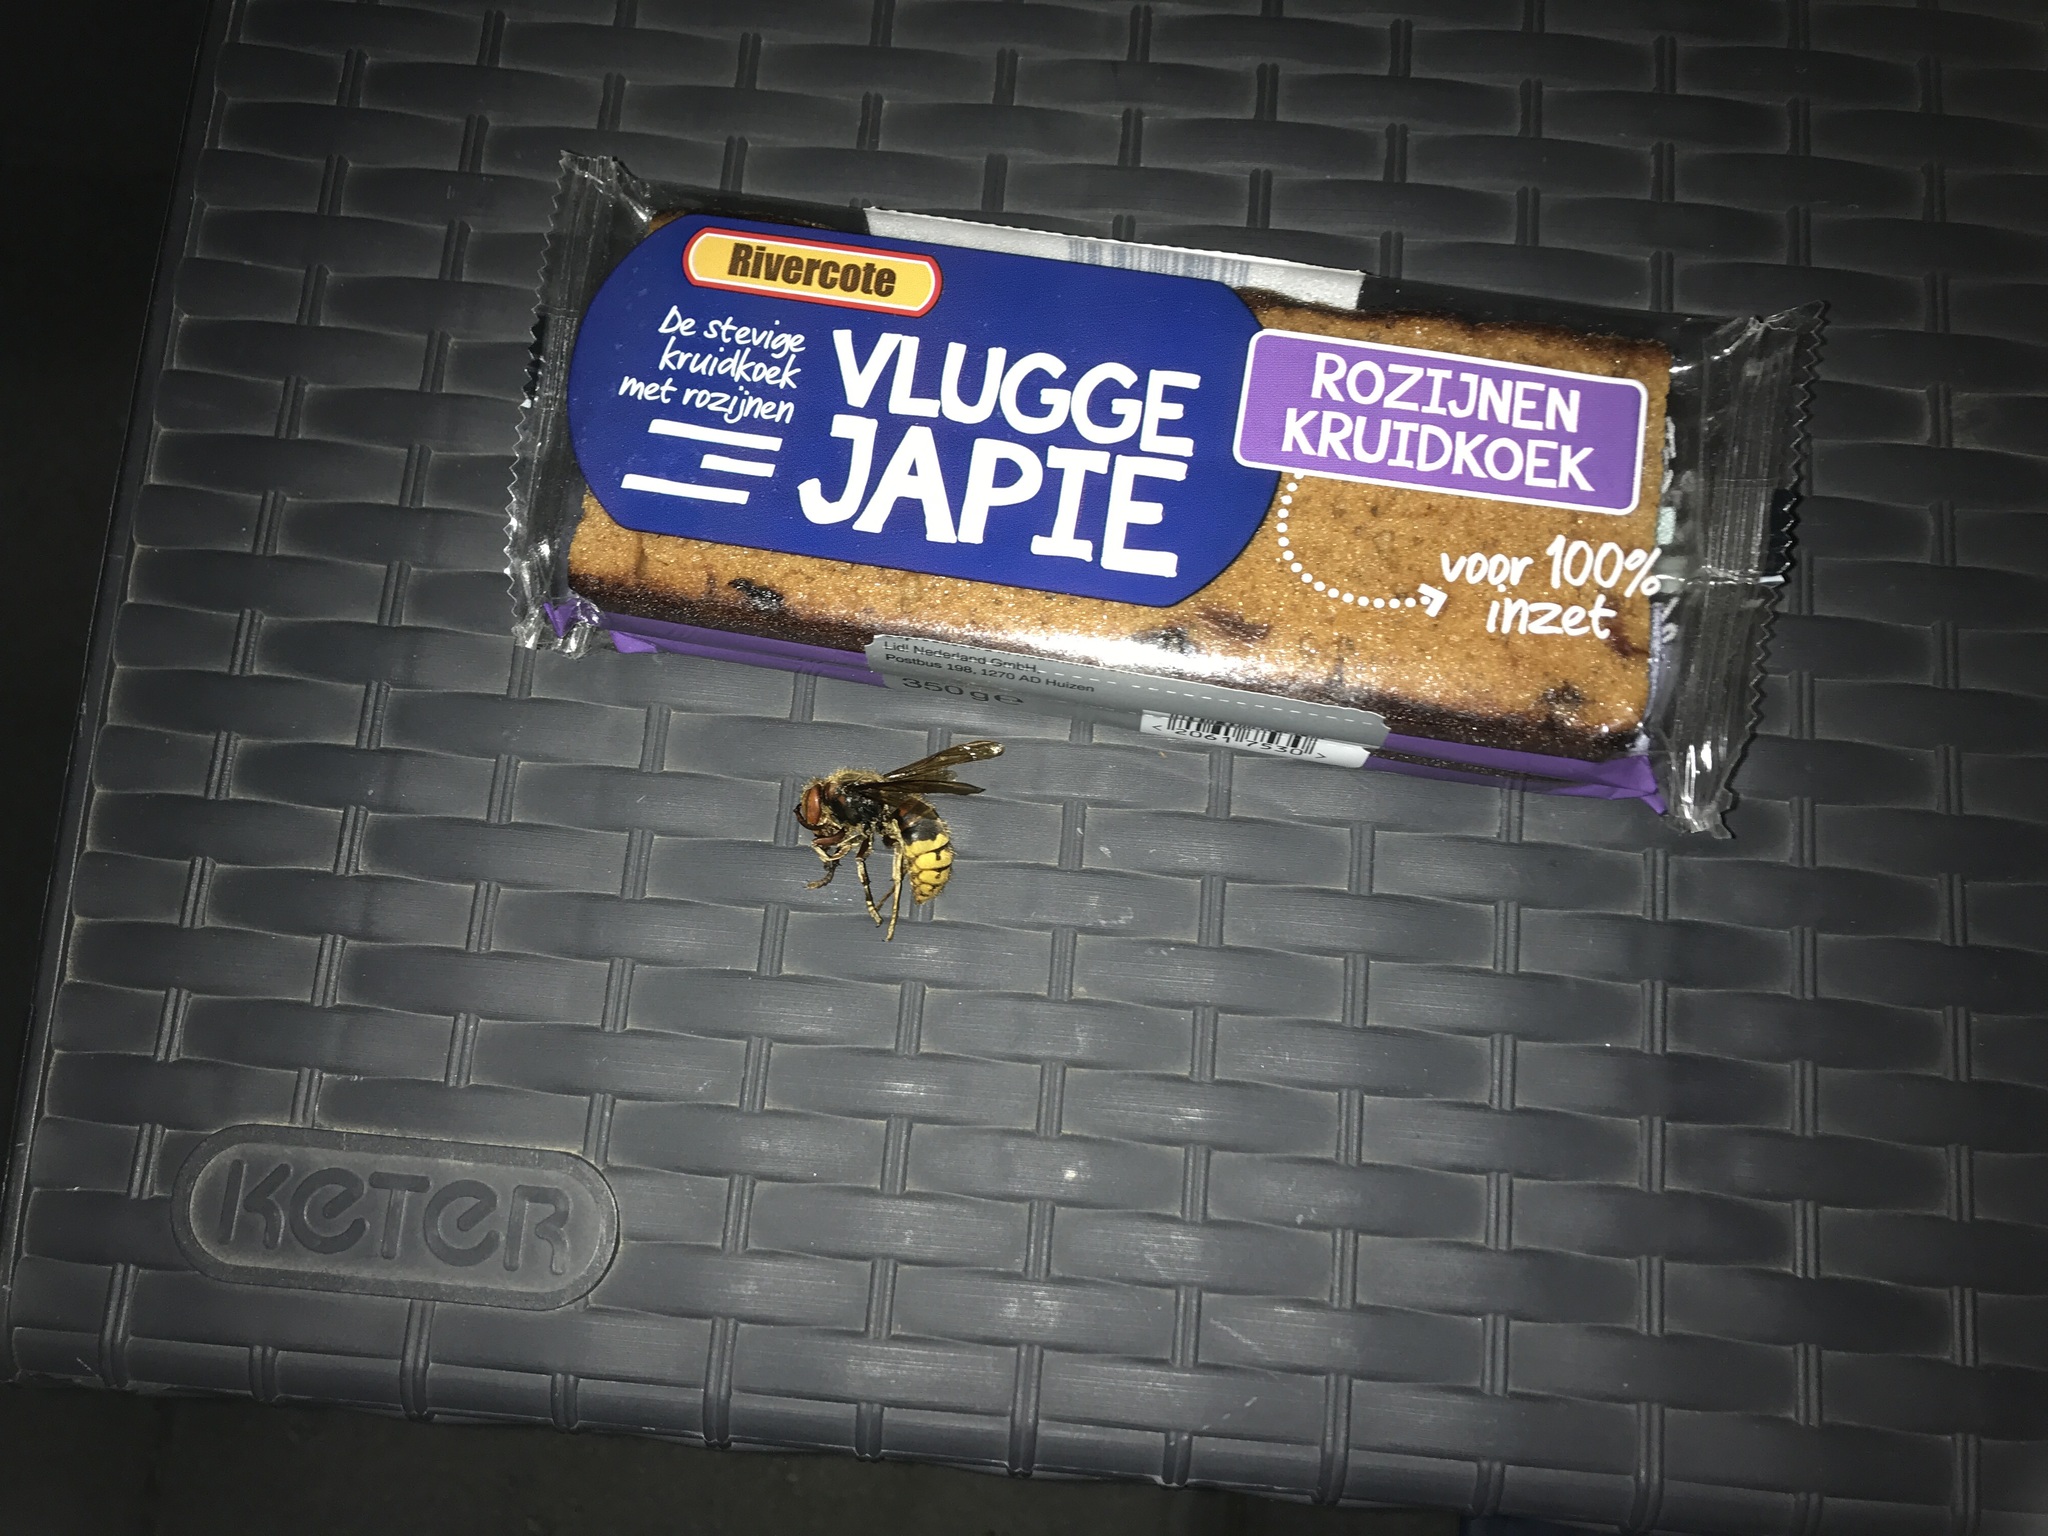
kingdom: Animalia
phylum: Arthropoda
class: Insecta
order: Hymenoptera
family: Vespidae
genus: Vespa
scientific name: Vespa crabro
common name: Hornet
